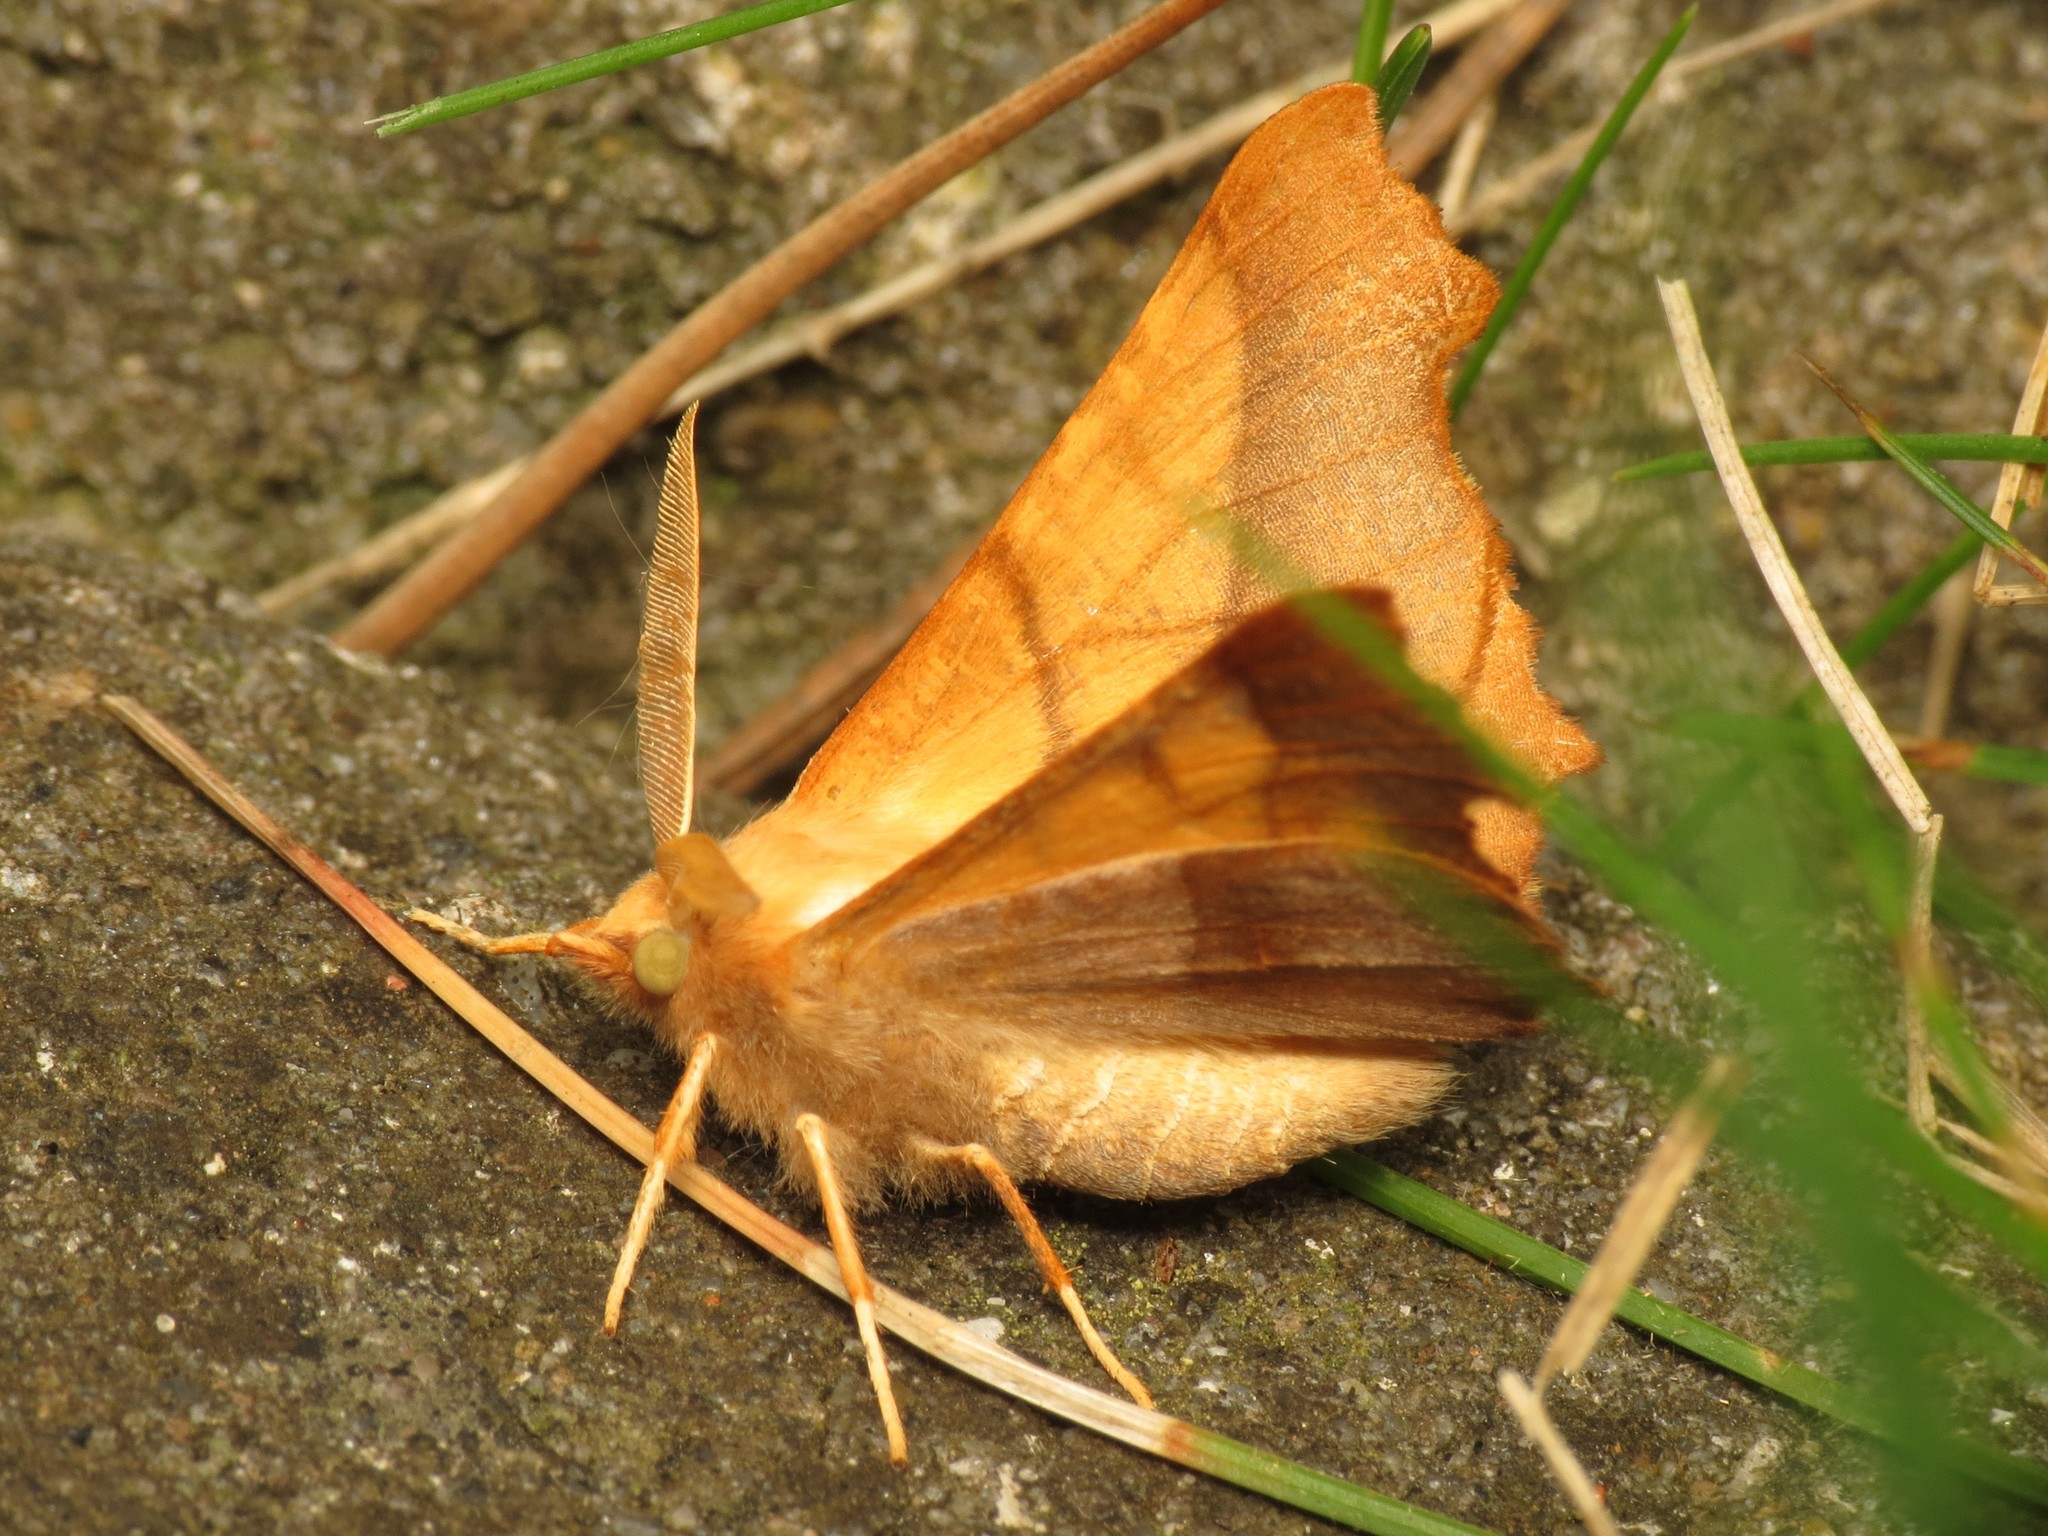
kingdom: Animalia
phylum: Arthropoda
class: Insecta
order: Lepidoptera
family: Geometridae
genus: Ennomos
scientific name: Ennomos fuscantaria
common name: Dusky thorn
